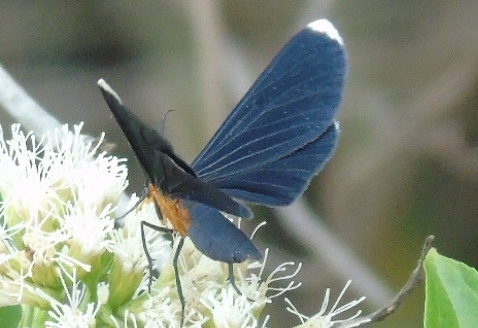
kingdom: Animalia
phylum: Arthropoda
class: Insecta
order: Lepidoptera
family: Geometridae
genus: Melanchroia
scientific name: Melanchroia chephise
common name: White-tipped black
